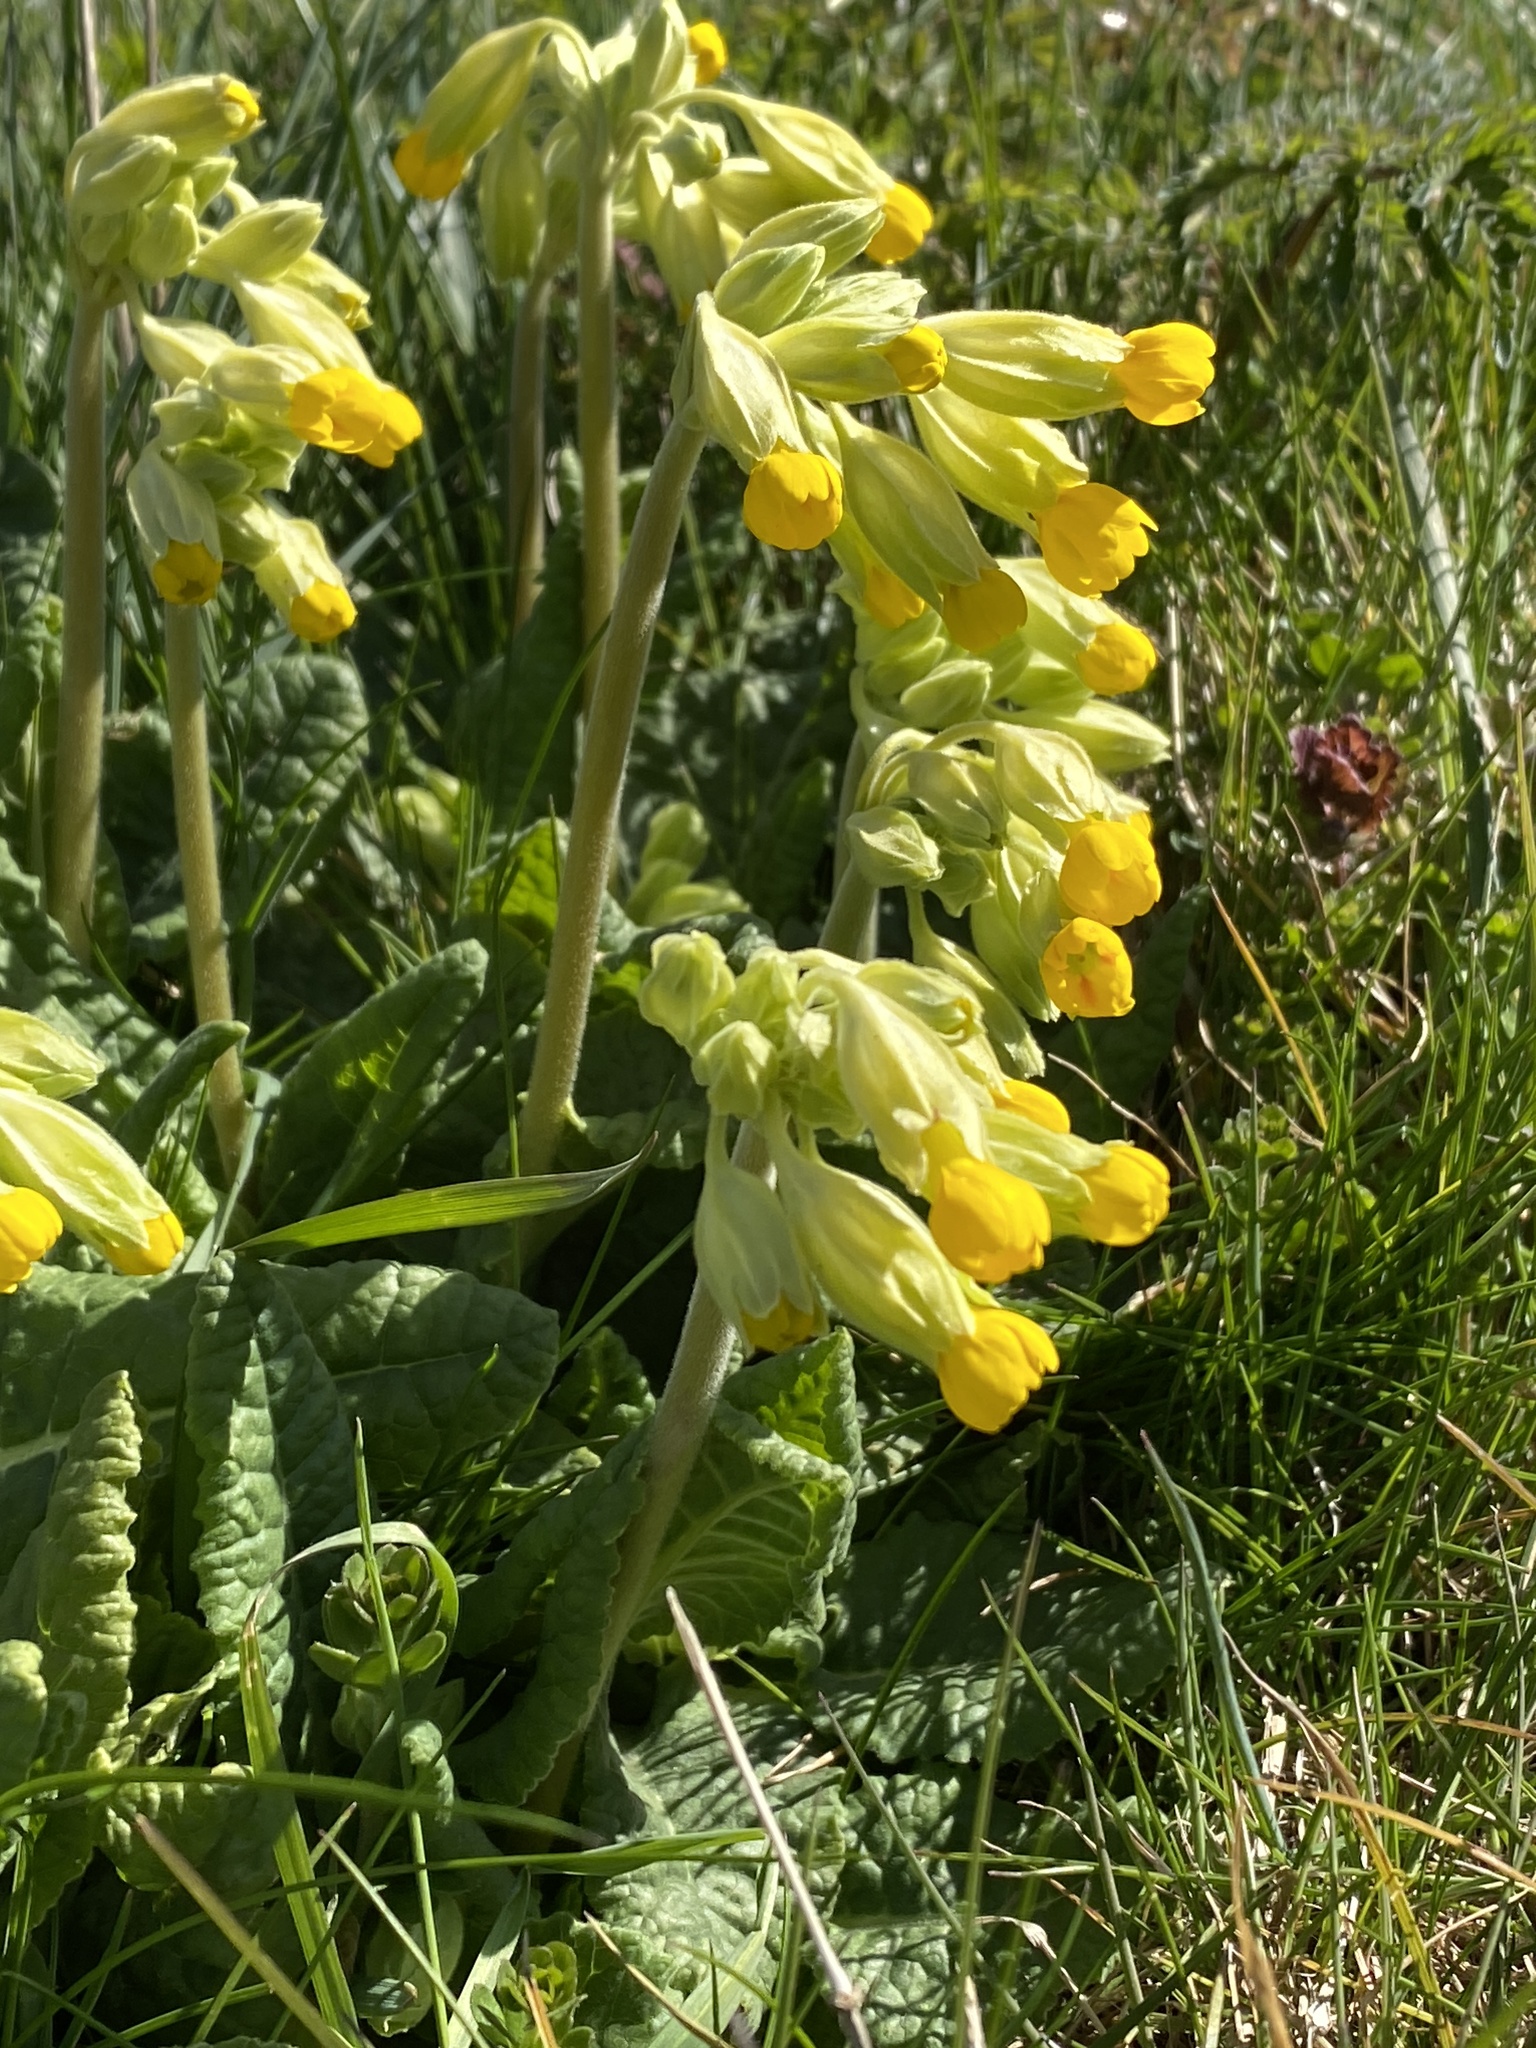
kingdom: Plantae
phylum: Tracheophyta
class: Magnoliopsida
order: Ericales
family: Primulaceae
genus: Primula
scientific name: Primula veris
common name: Cowslip
